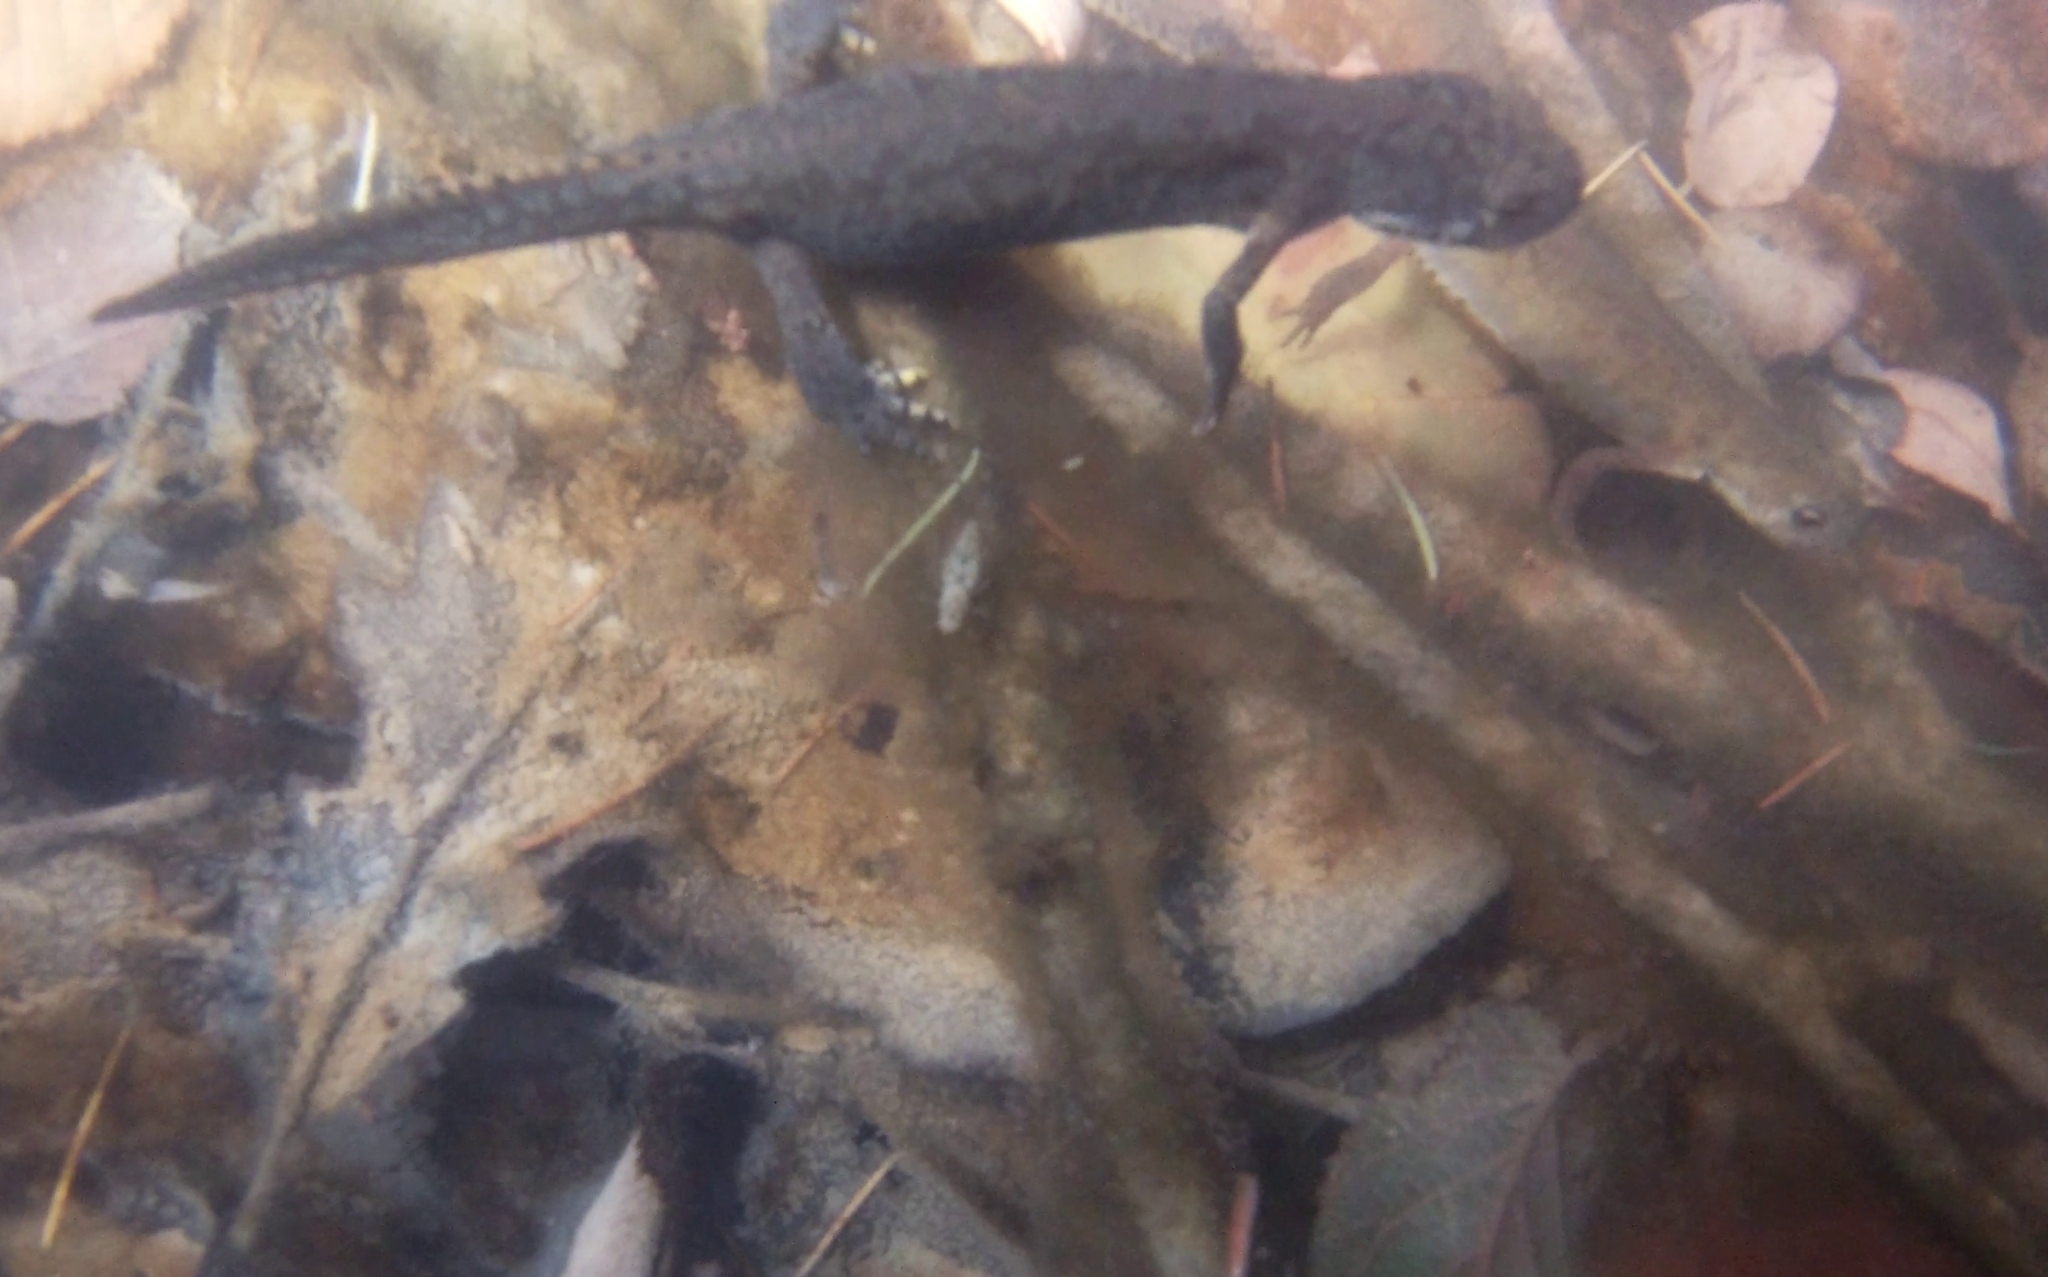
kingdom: Animalia
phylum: Chordata
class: Amphibia
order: Caudata
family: Salamandridae
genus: Ichthyosaura
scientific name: Ichthyosaura alpestris
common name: Alpine newt
